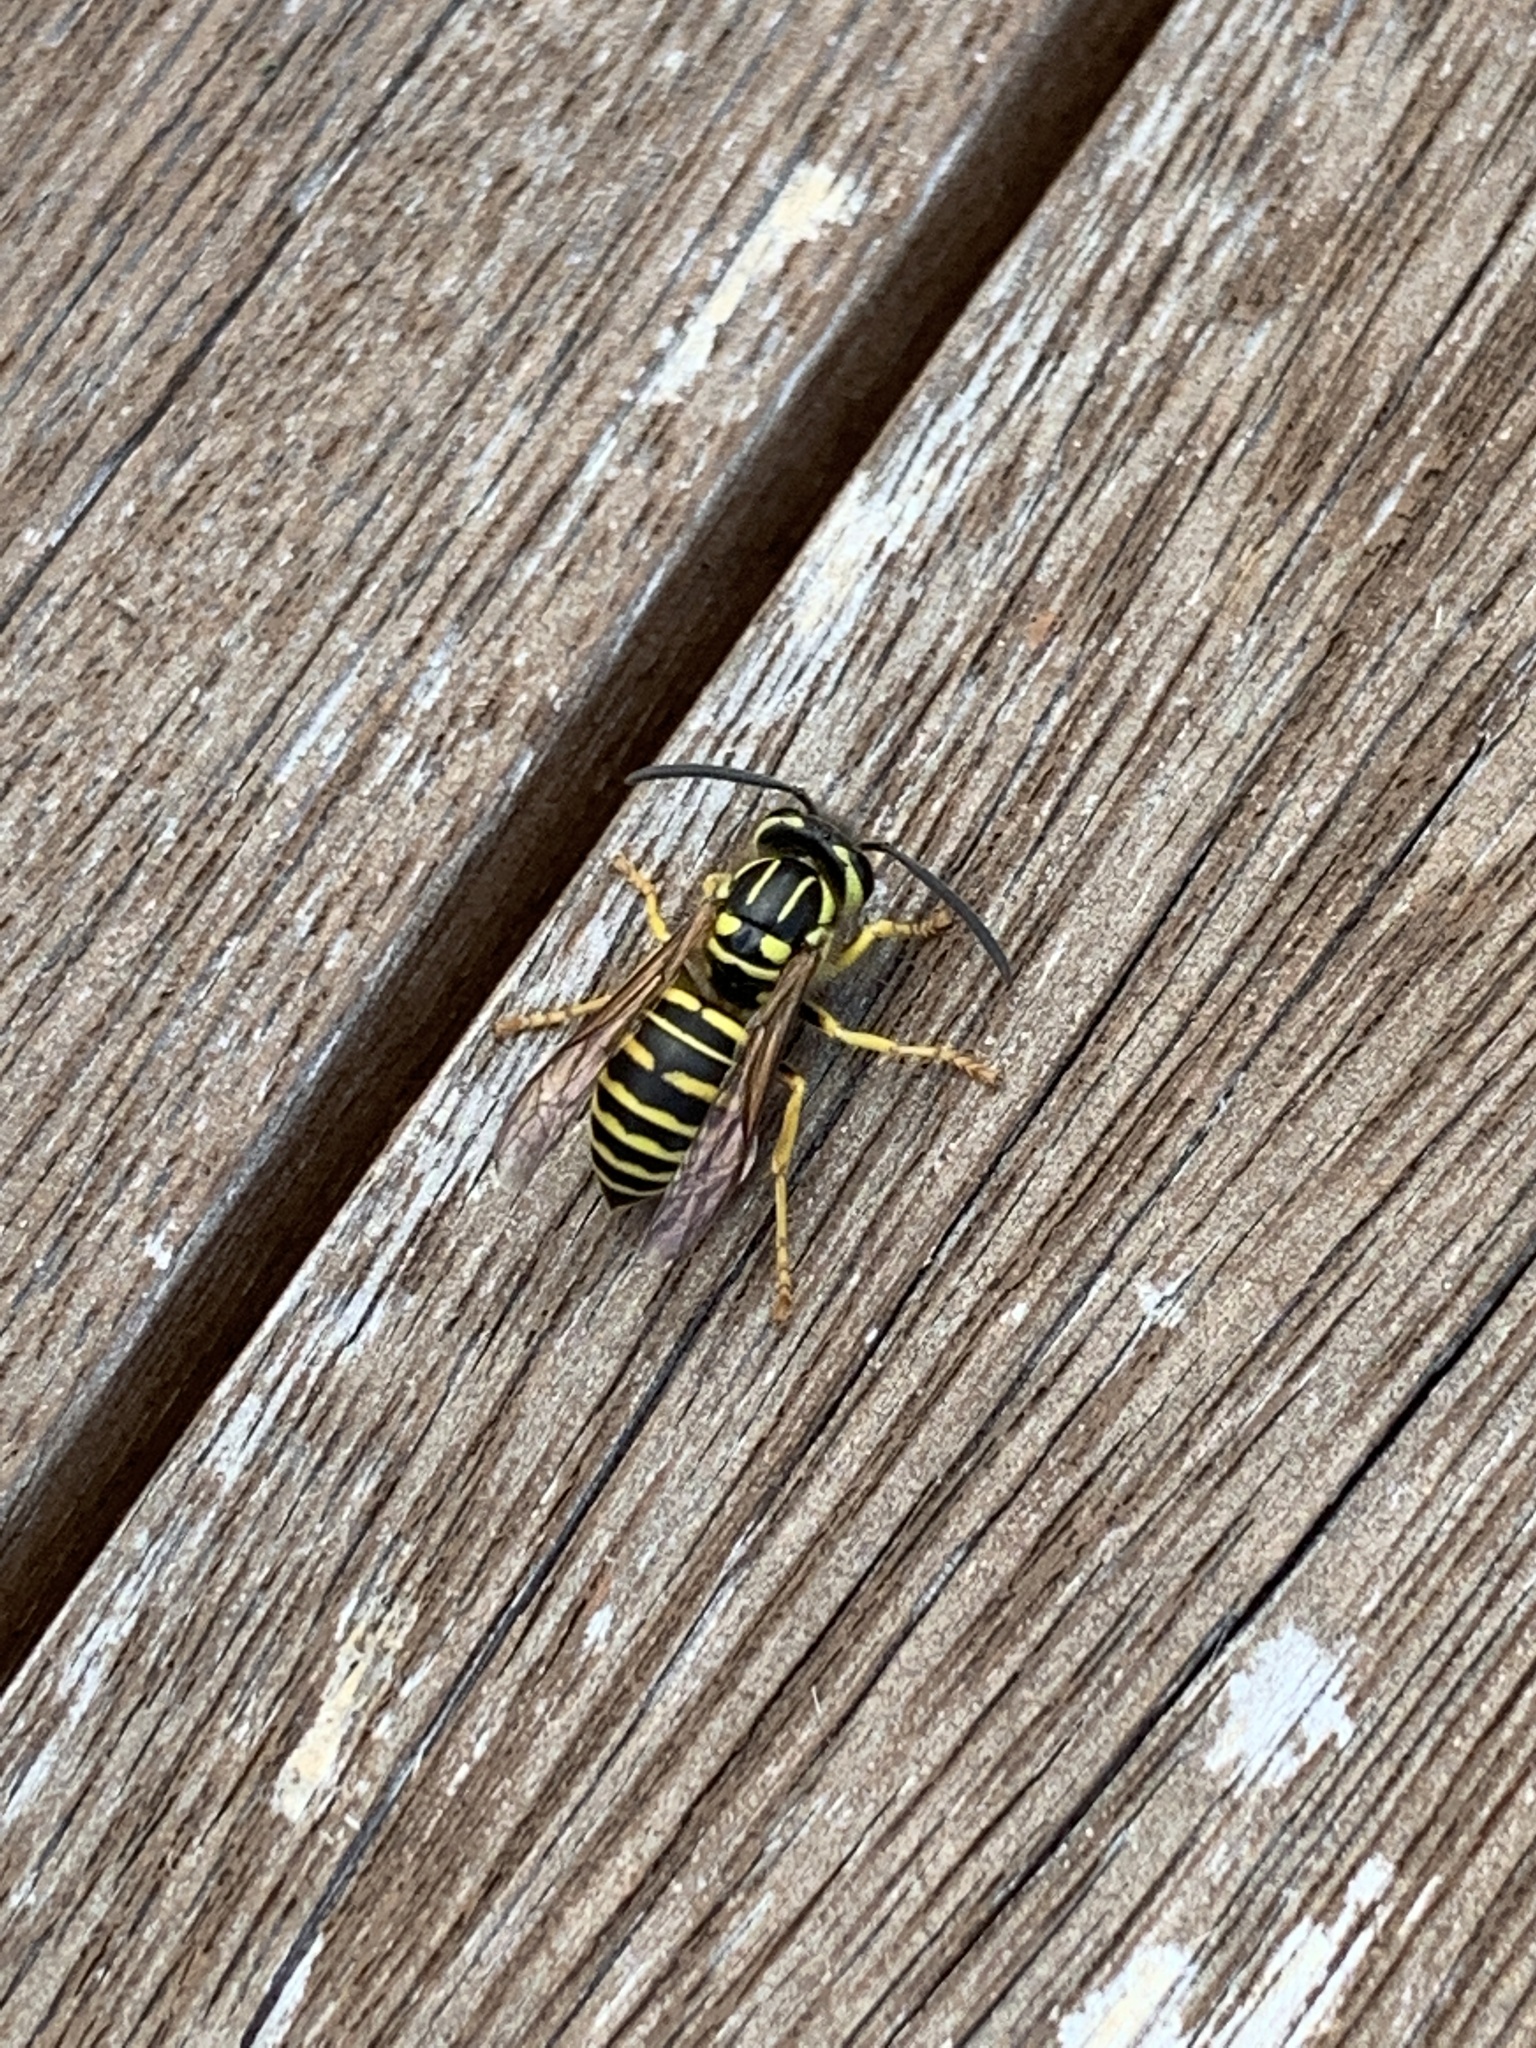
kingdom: Animalia
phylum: Arthropoda
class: Insecta
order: Hymenoptera
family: Vespidae
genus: Vespula
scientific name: Vespula squamosa
